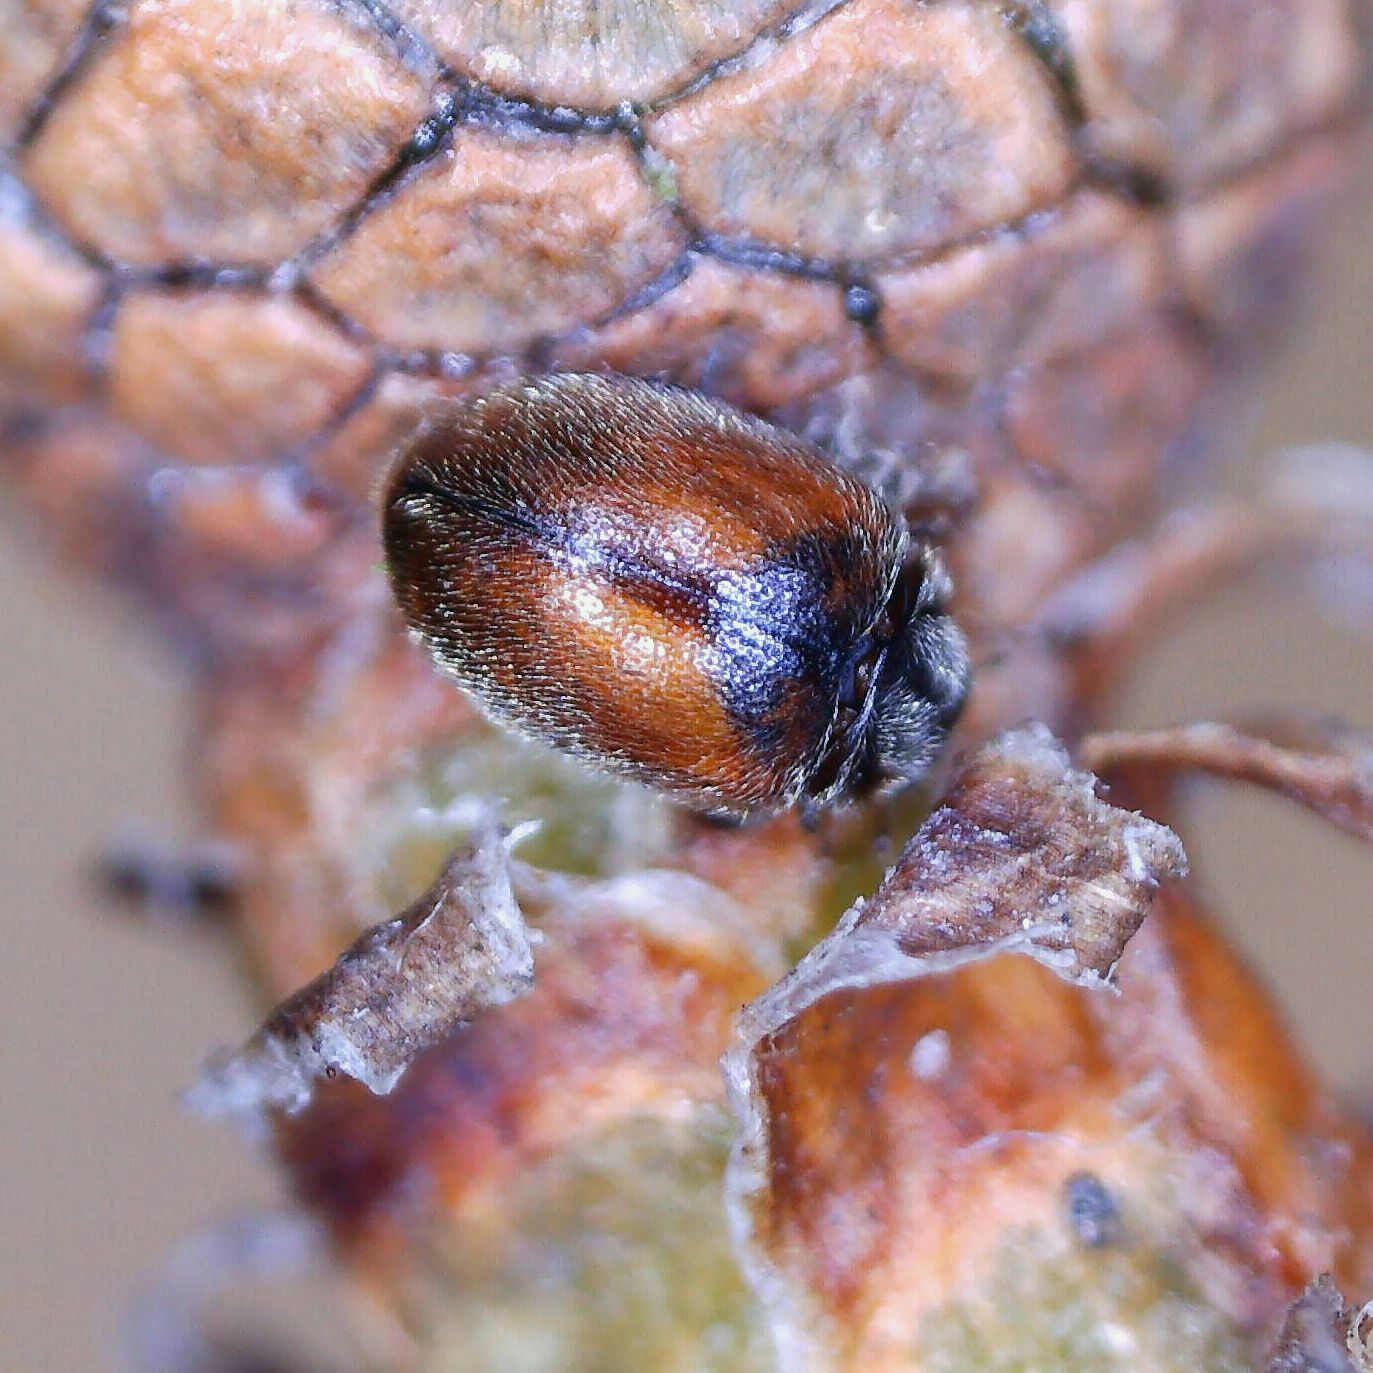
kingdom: Animalia
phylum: Arthropoda
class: Insecta
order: Coleoptera
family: Coccinellidae
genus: Scymnus
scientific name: Scymnus suturalis
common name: Ladybird beetle
